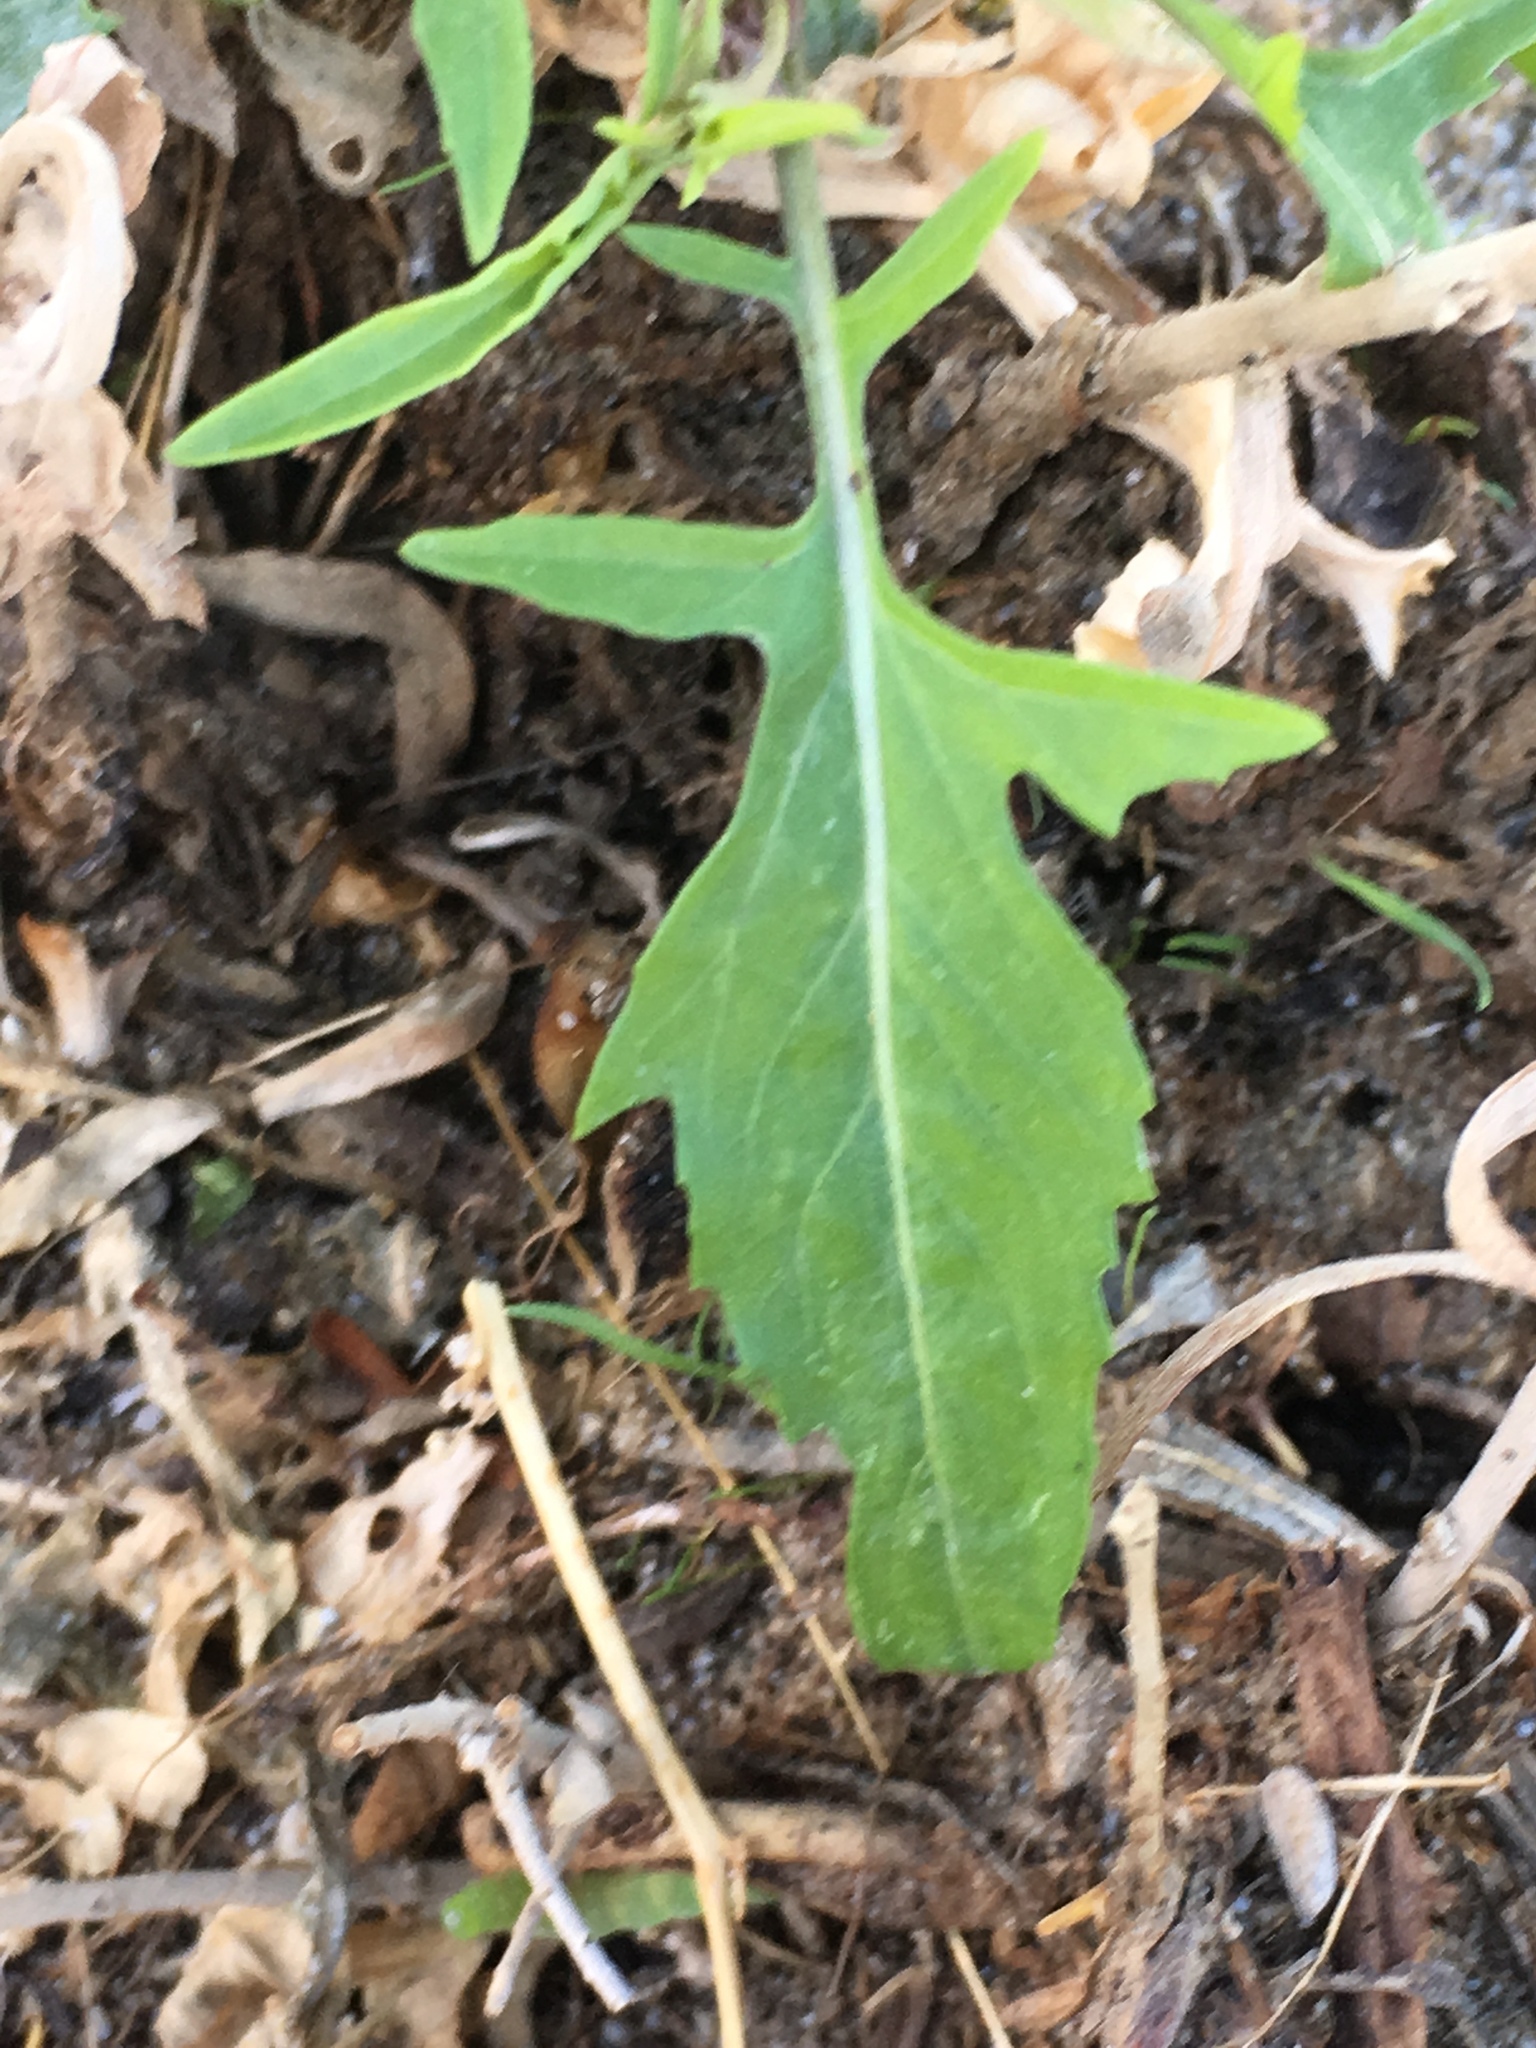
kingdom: Plantae
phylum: Tracheophyta
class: Magnoliopsida
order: Brassicales
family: Brassicaceae
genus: Sisymbrium
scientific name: Sisymbrium irio
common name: London rocket
